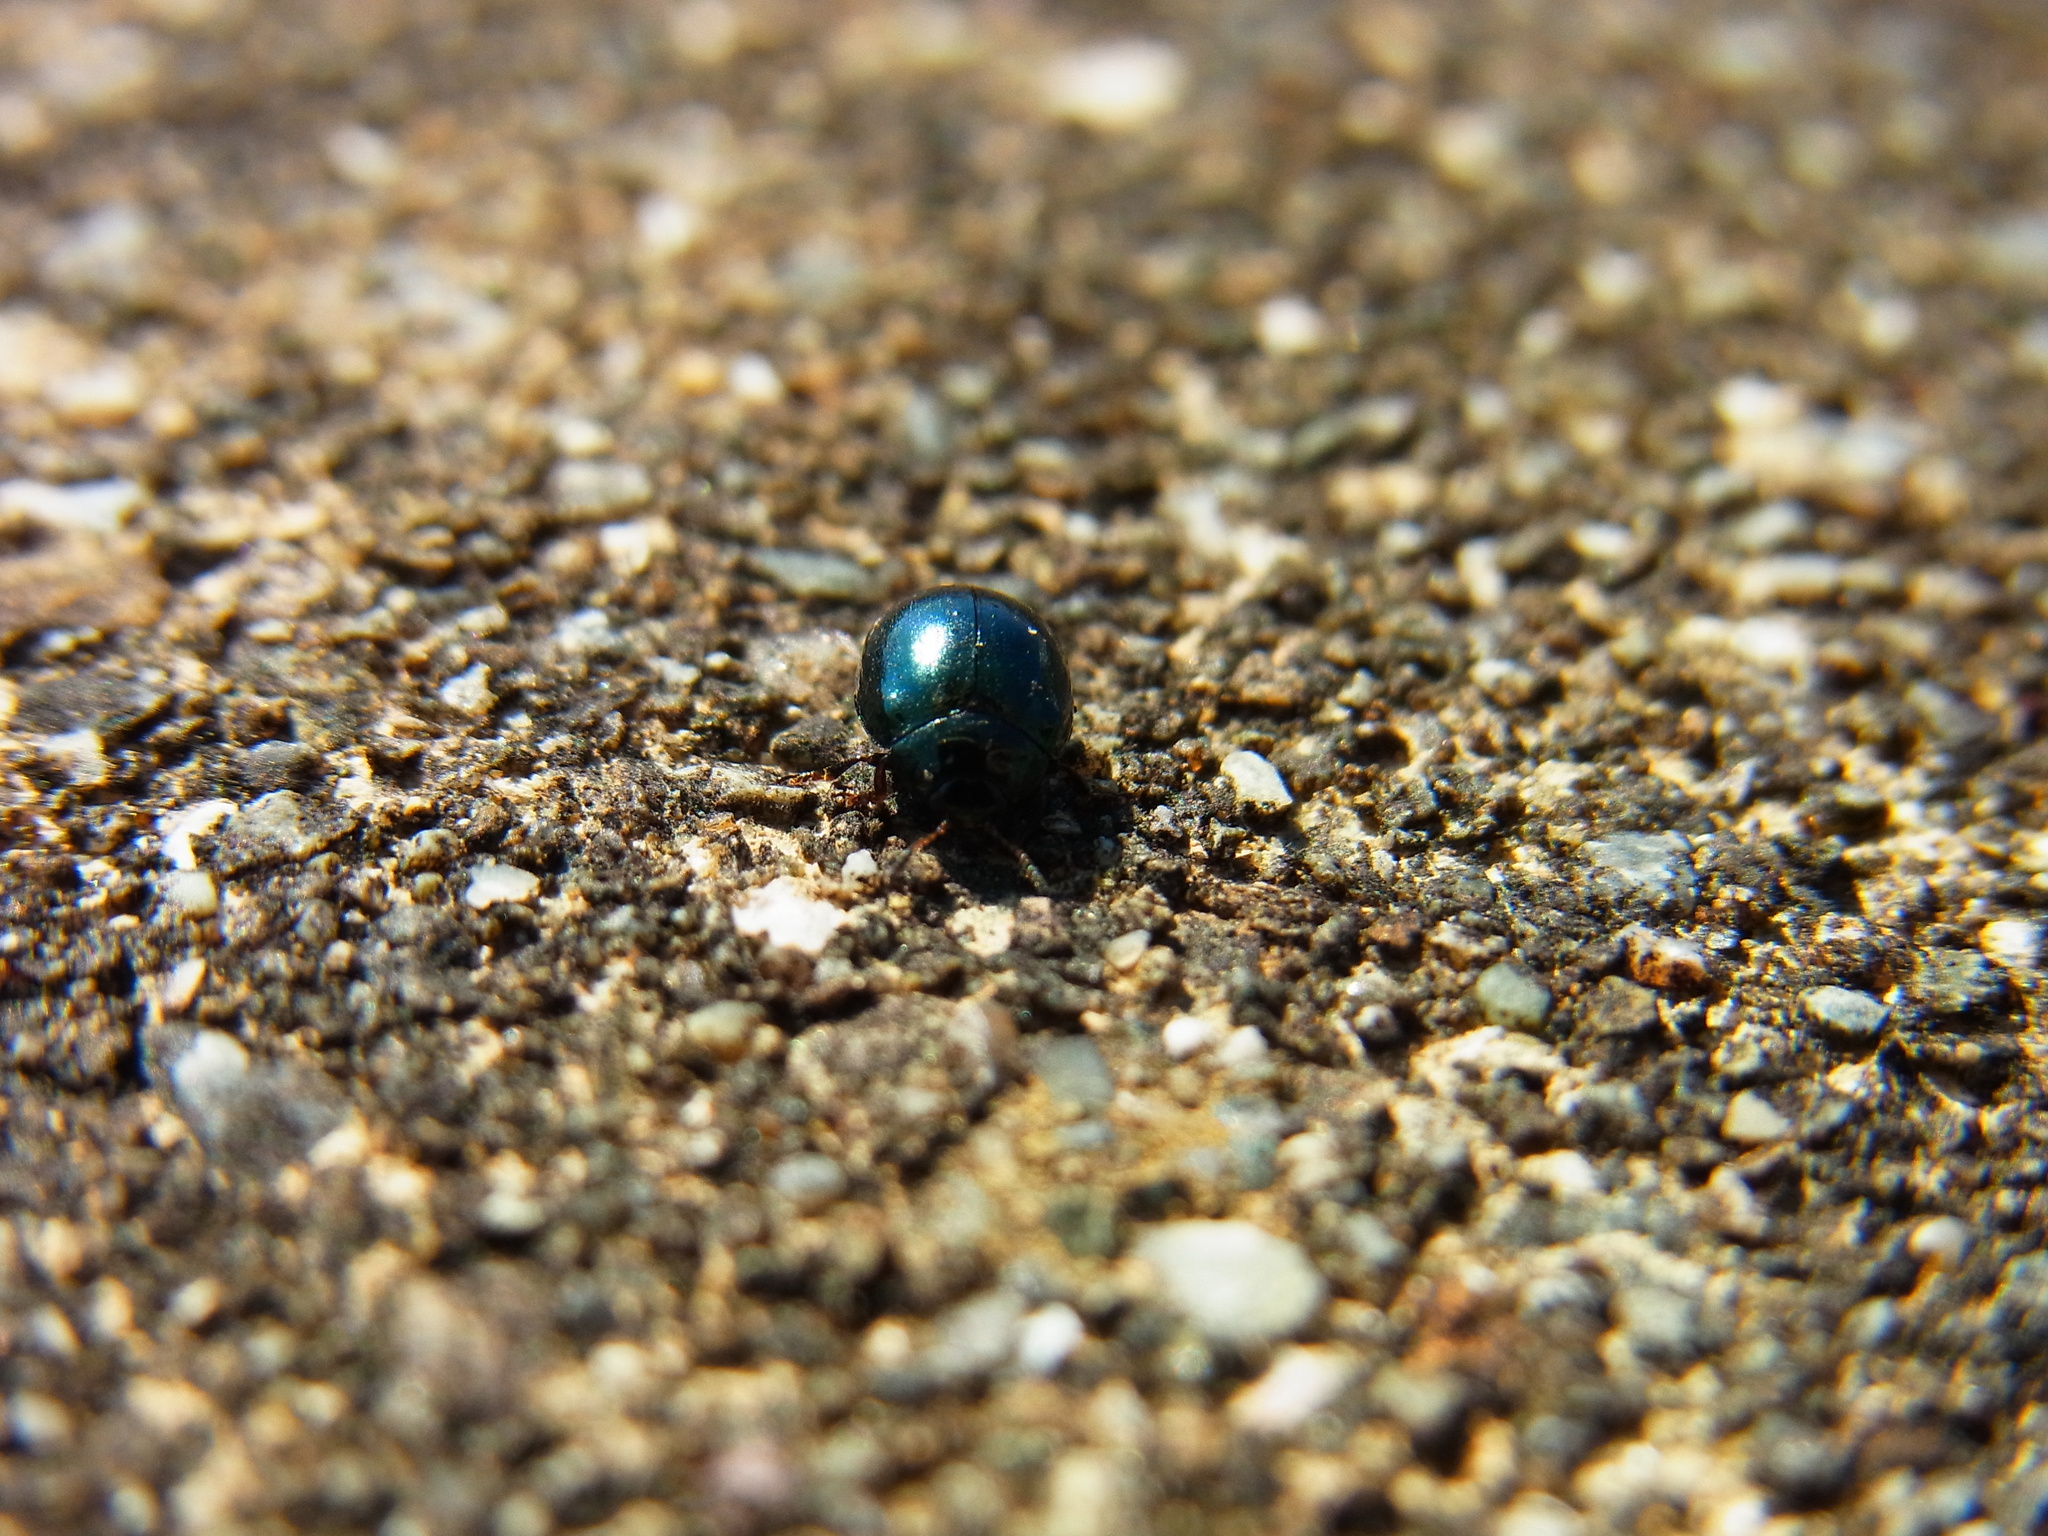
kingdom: Animalia
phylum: Arthropoda
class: Insecta
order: Coleoptera
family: Chrysomelidae
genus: Plagiodera
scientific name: Plagiodera versicolora
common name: Imported willow leaf beetle
